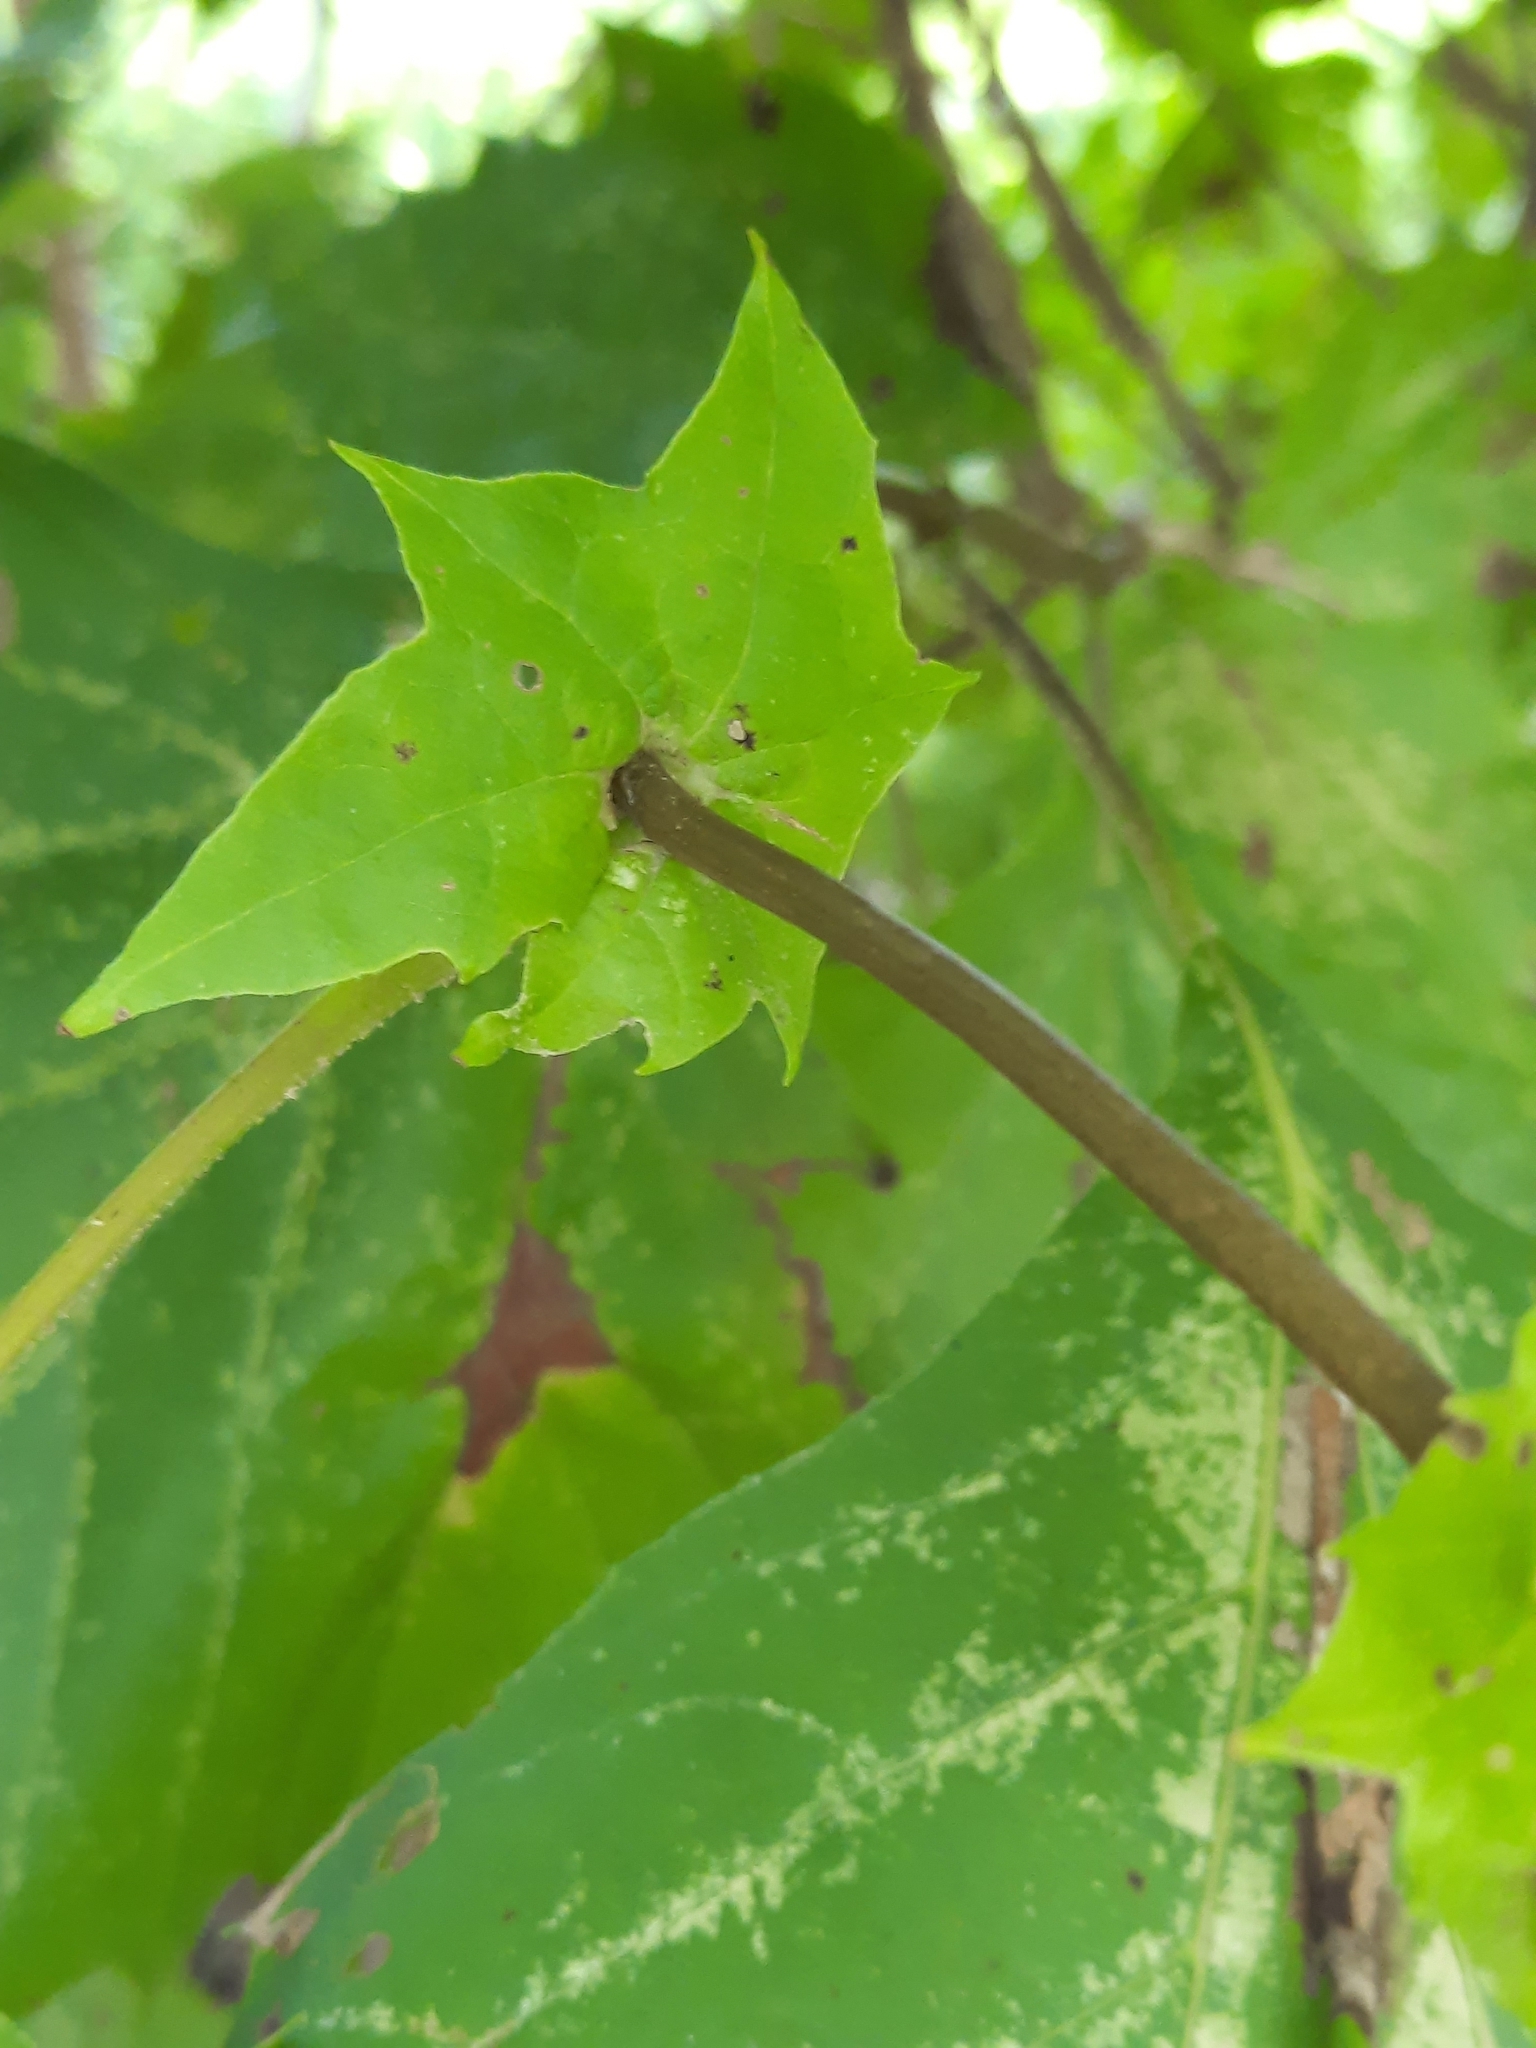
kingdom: Plantae
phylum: Tracheophyta
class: Magnoliopsida
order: Proteales
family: Platanaceae
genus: Platanus
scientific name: Platanus occidentalis
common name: American sycamore
